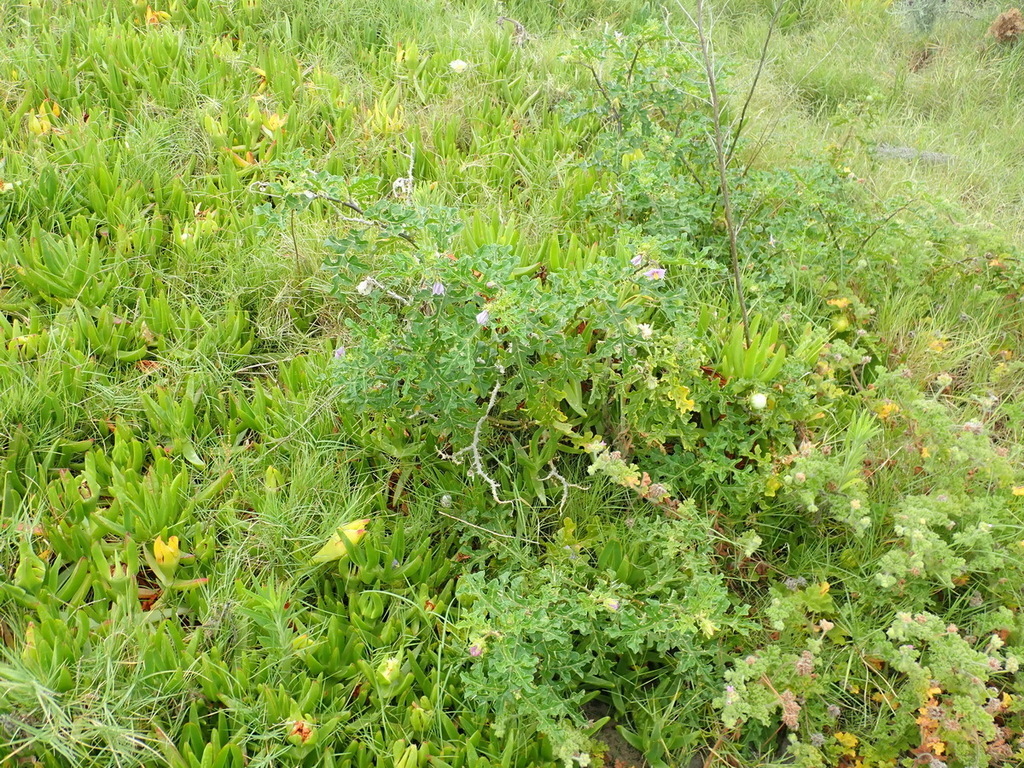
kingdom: Plantae
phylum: Tracheophyta
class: Magnoliopsida
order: Solanales
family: Solanaceae
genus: Solanum
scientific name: Solanum linnaeanum
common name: Nightshade
